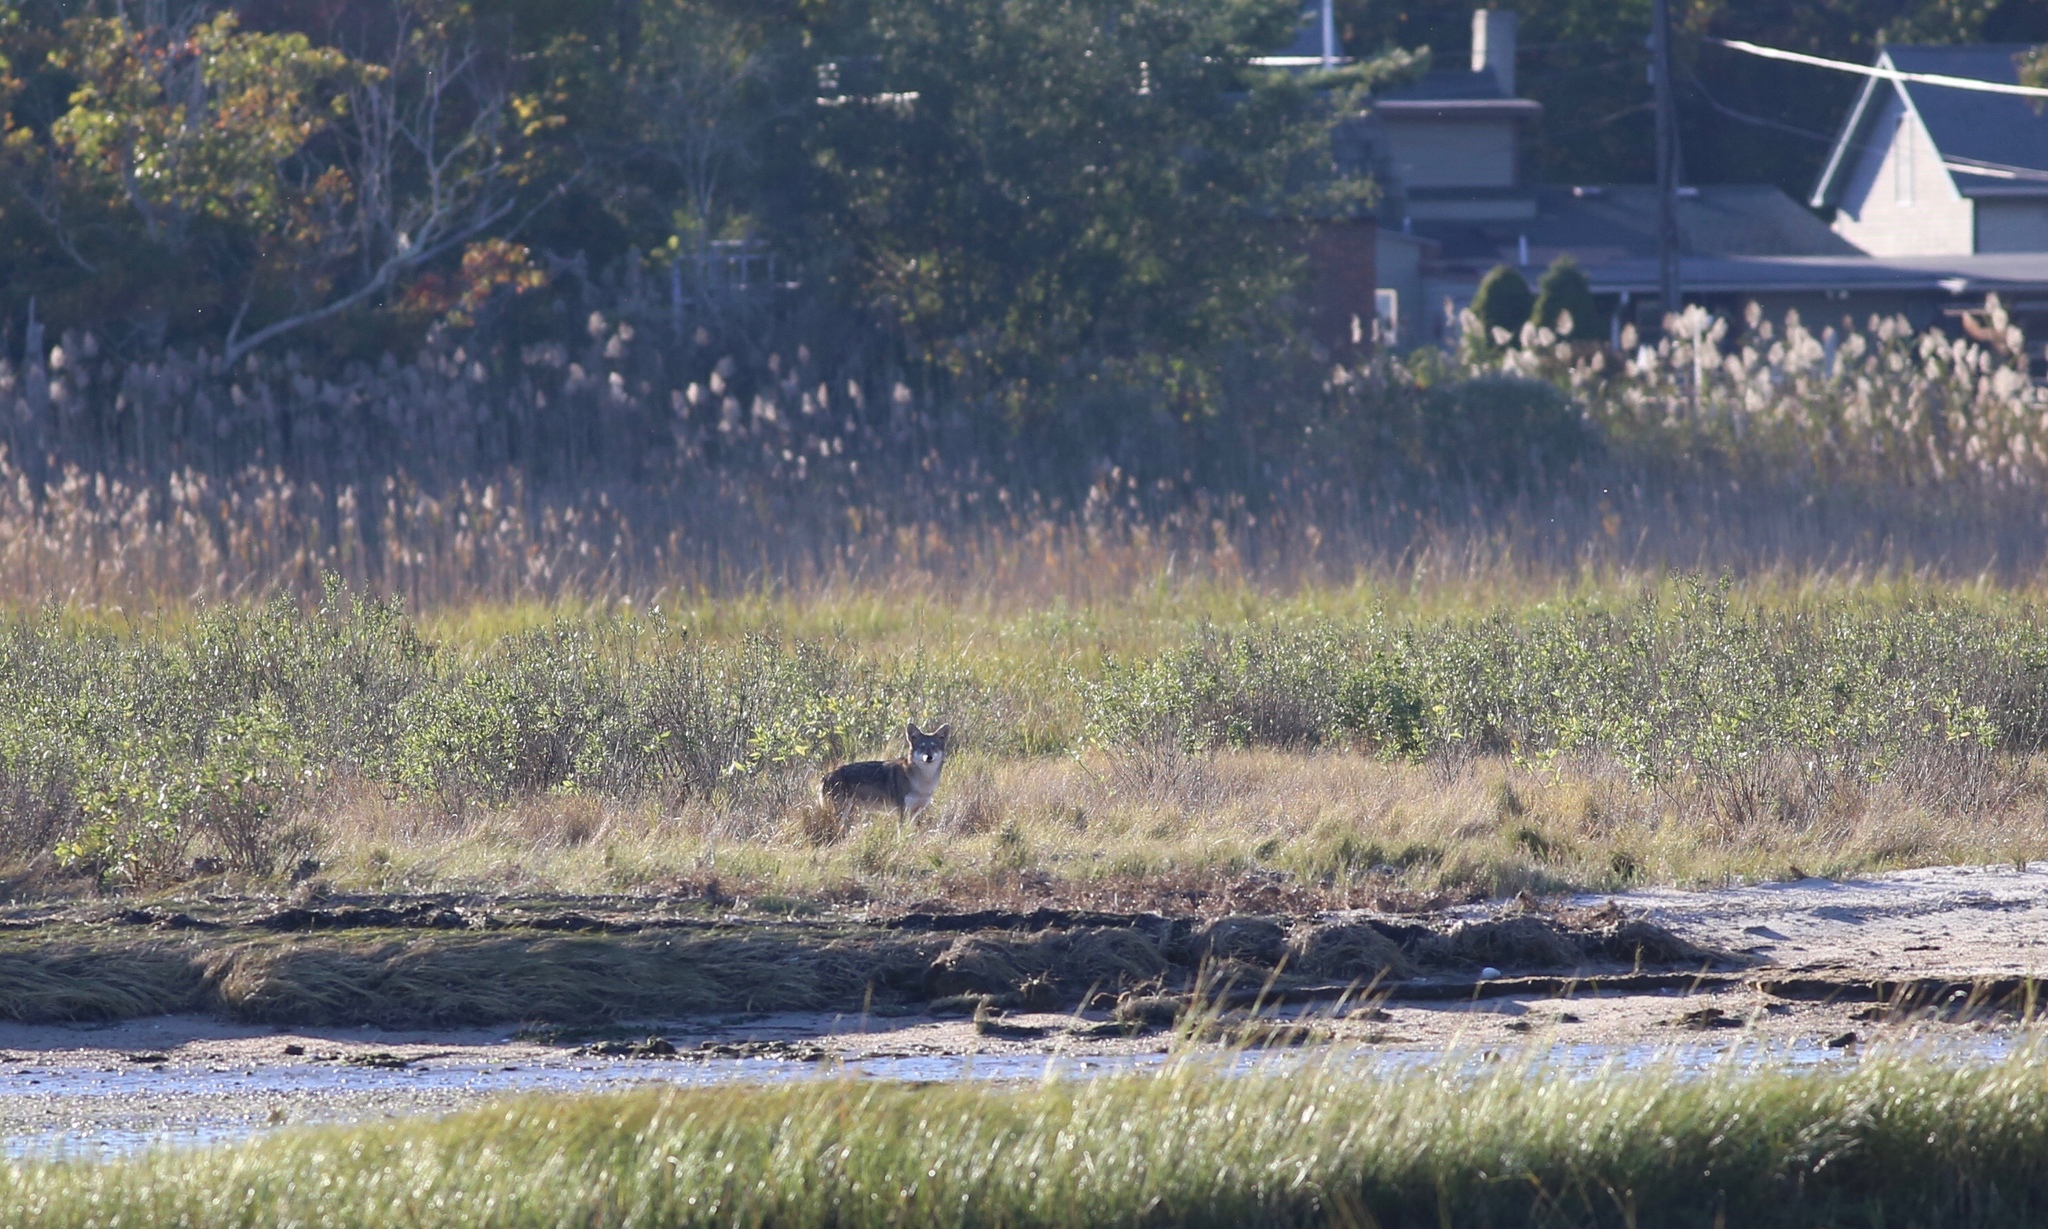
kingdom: Animalia
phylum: Chordata
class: Mammalia
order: Carnivora
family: Canidae
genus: Canis
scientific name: Canis latrans
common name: Coyote
